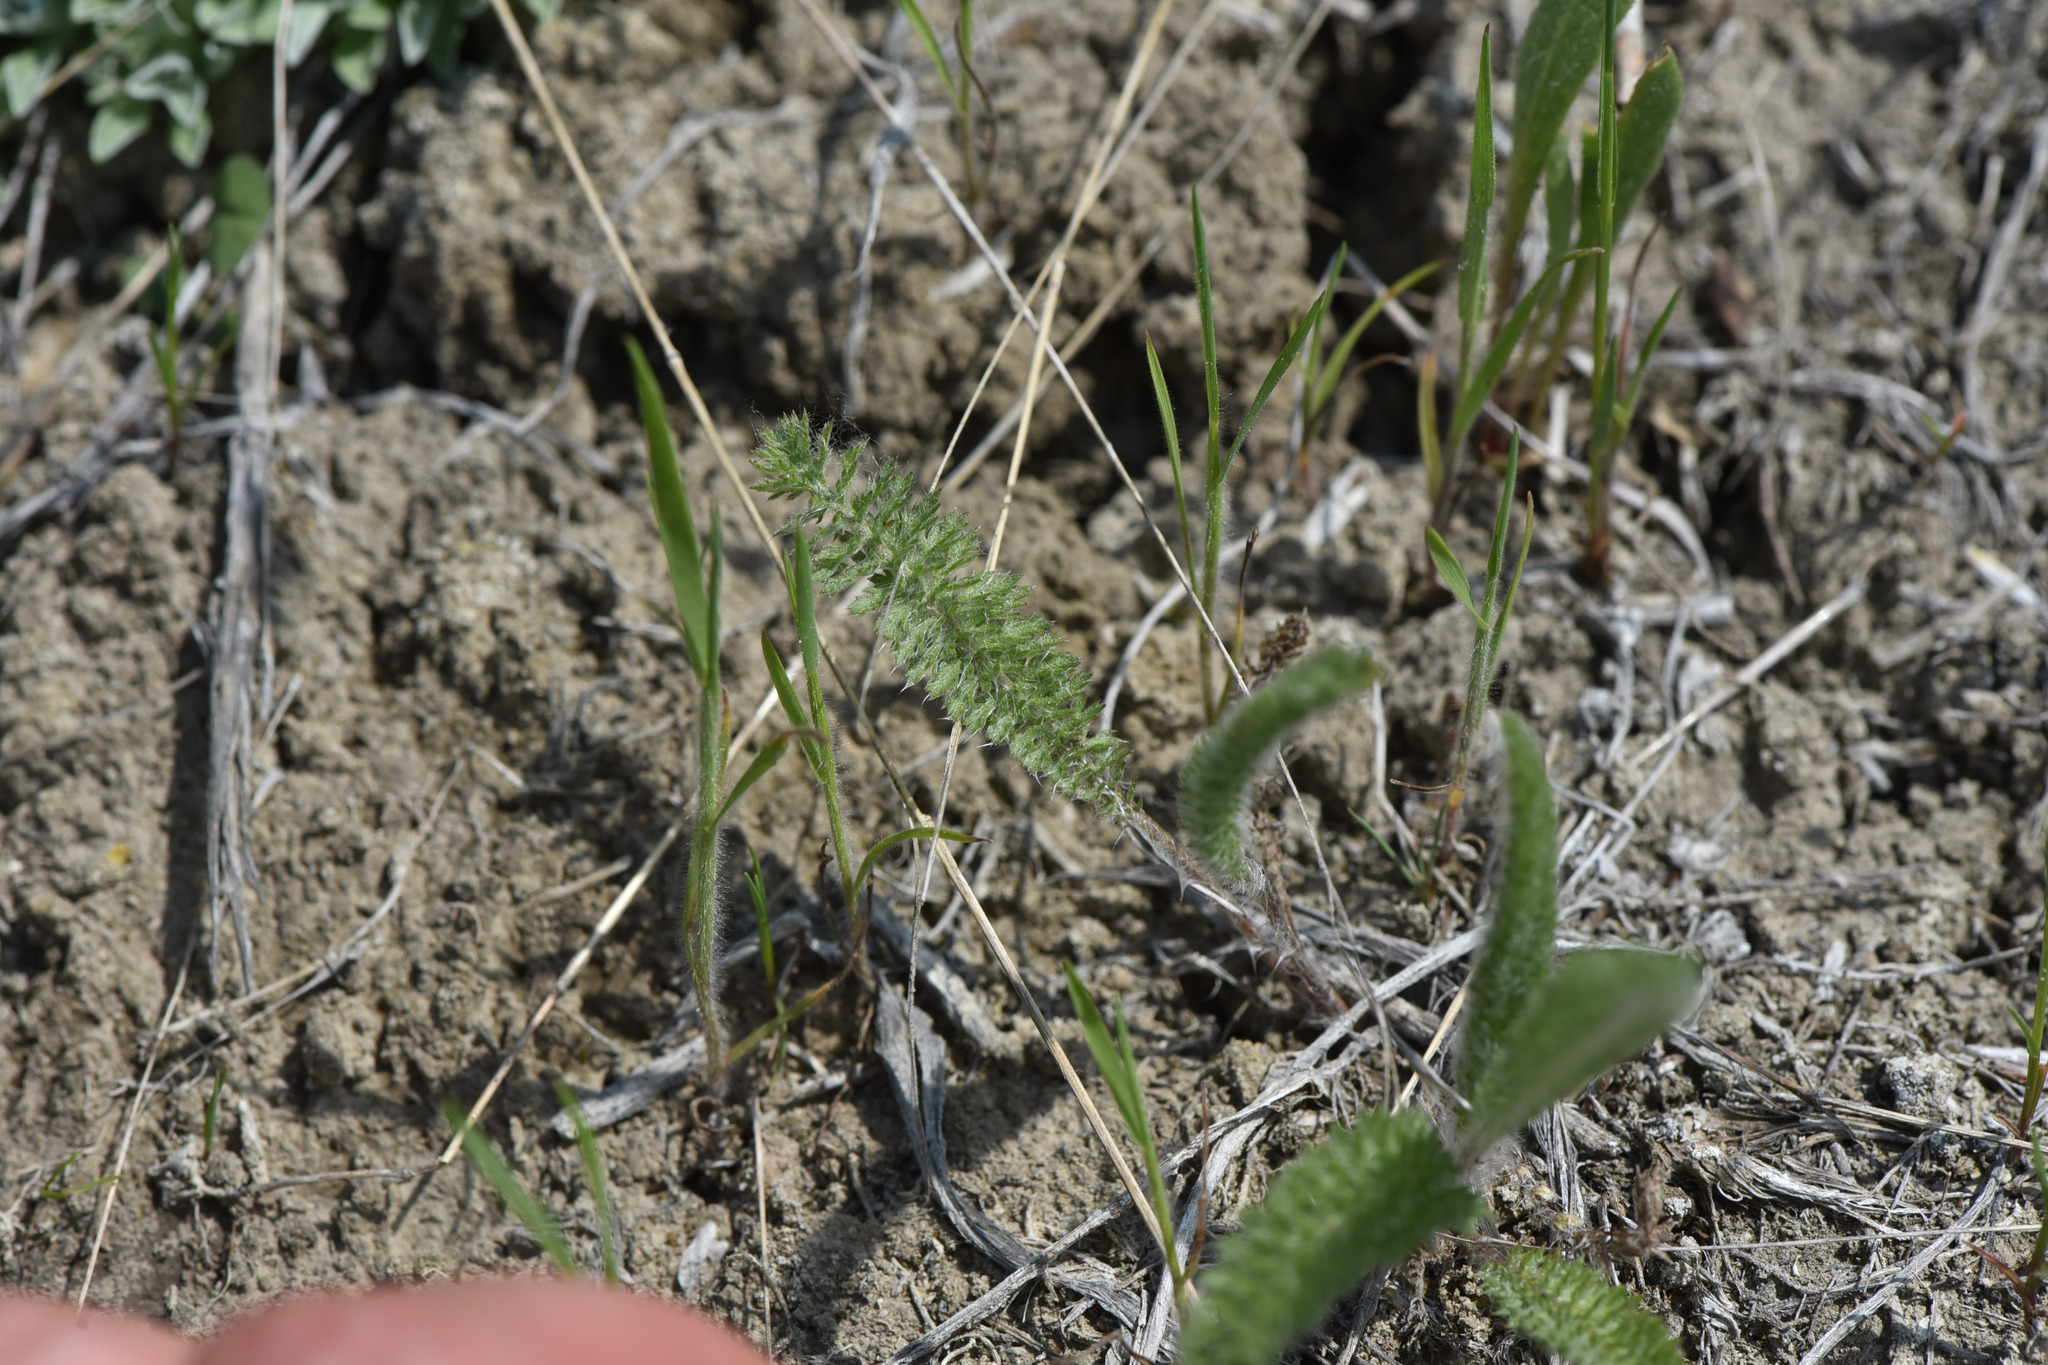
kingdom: Plantae
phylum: Tracheophyta
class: Magnoliopsida
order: Asterales
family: Asteraceae
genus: Achillea
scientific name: Achillea millefolium
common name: Yarrow
